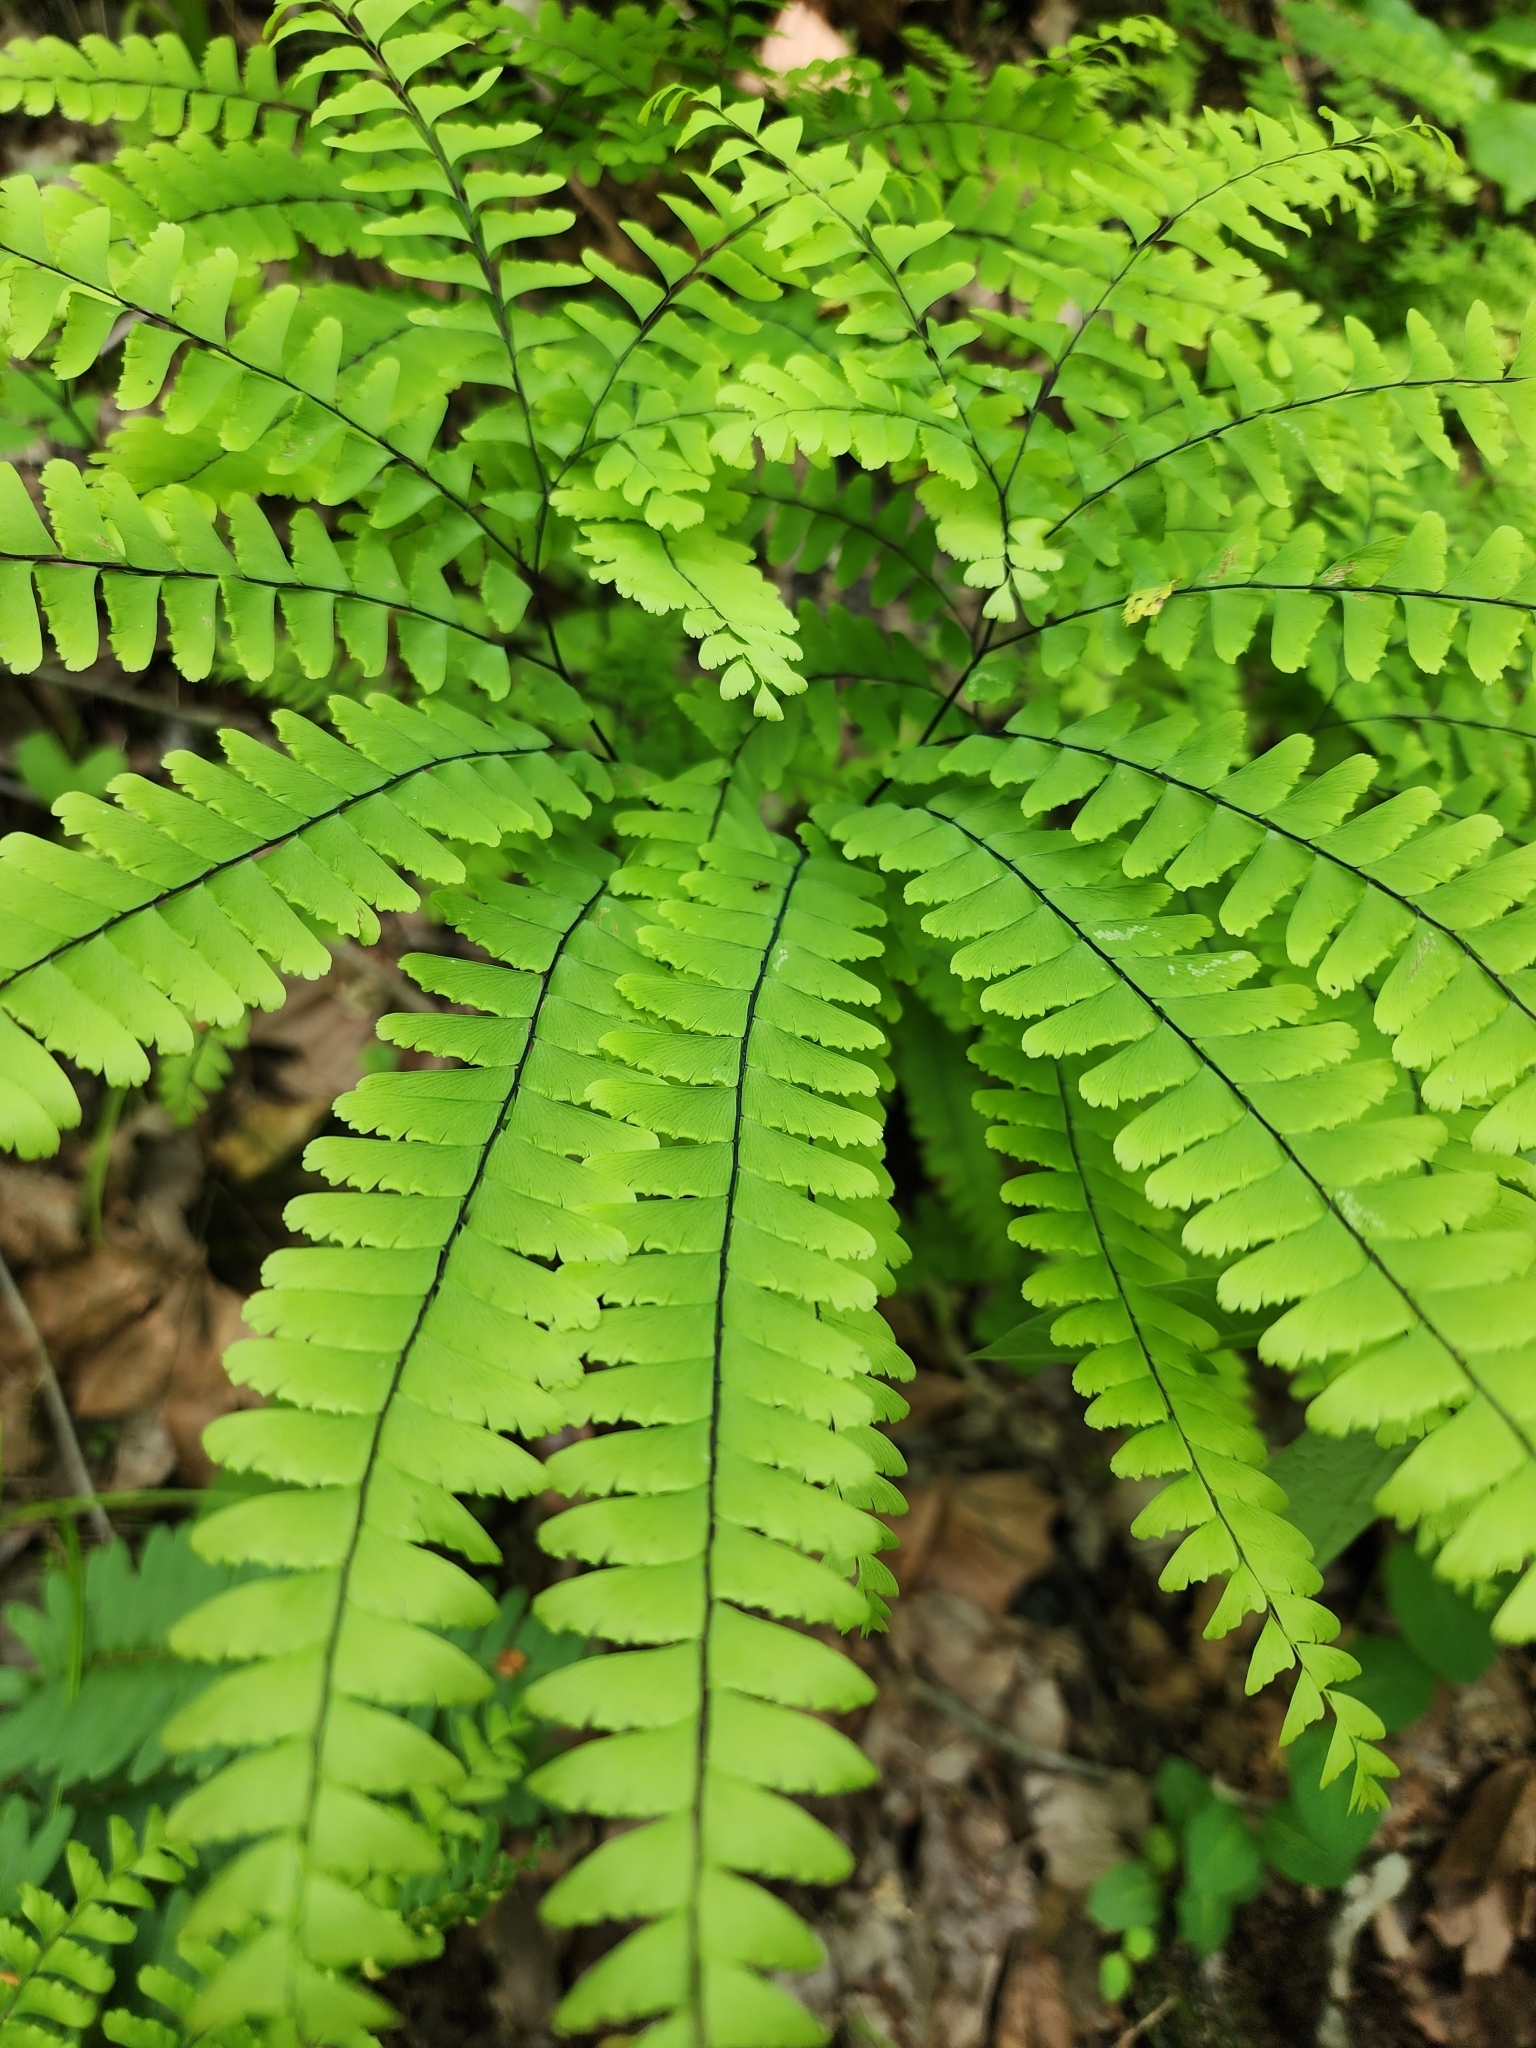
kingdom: Plantae
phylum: Tracheophyta
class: Polypodiopsida
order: Polypodiales
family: Pteridaceae
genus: Adiantum
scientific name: Adiantum pedatum
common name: Five-finger fern
